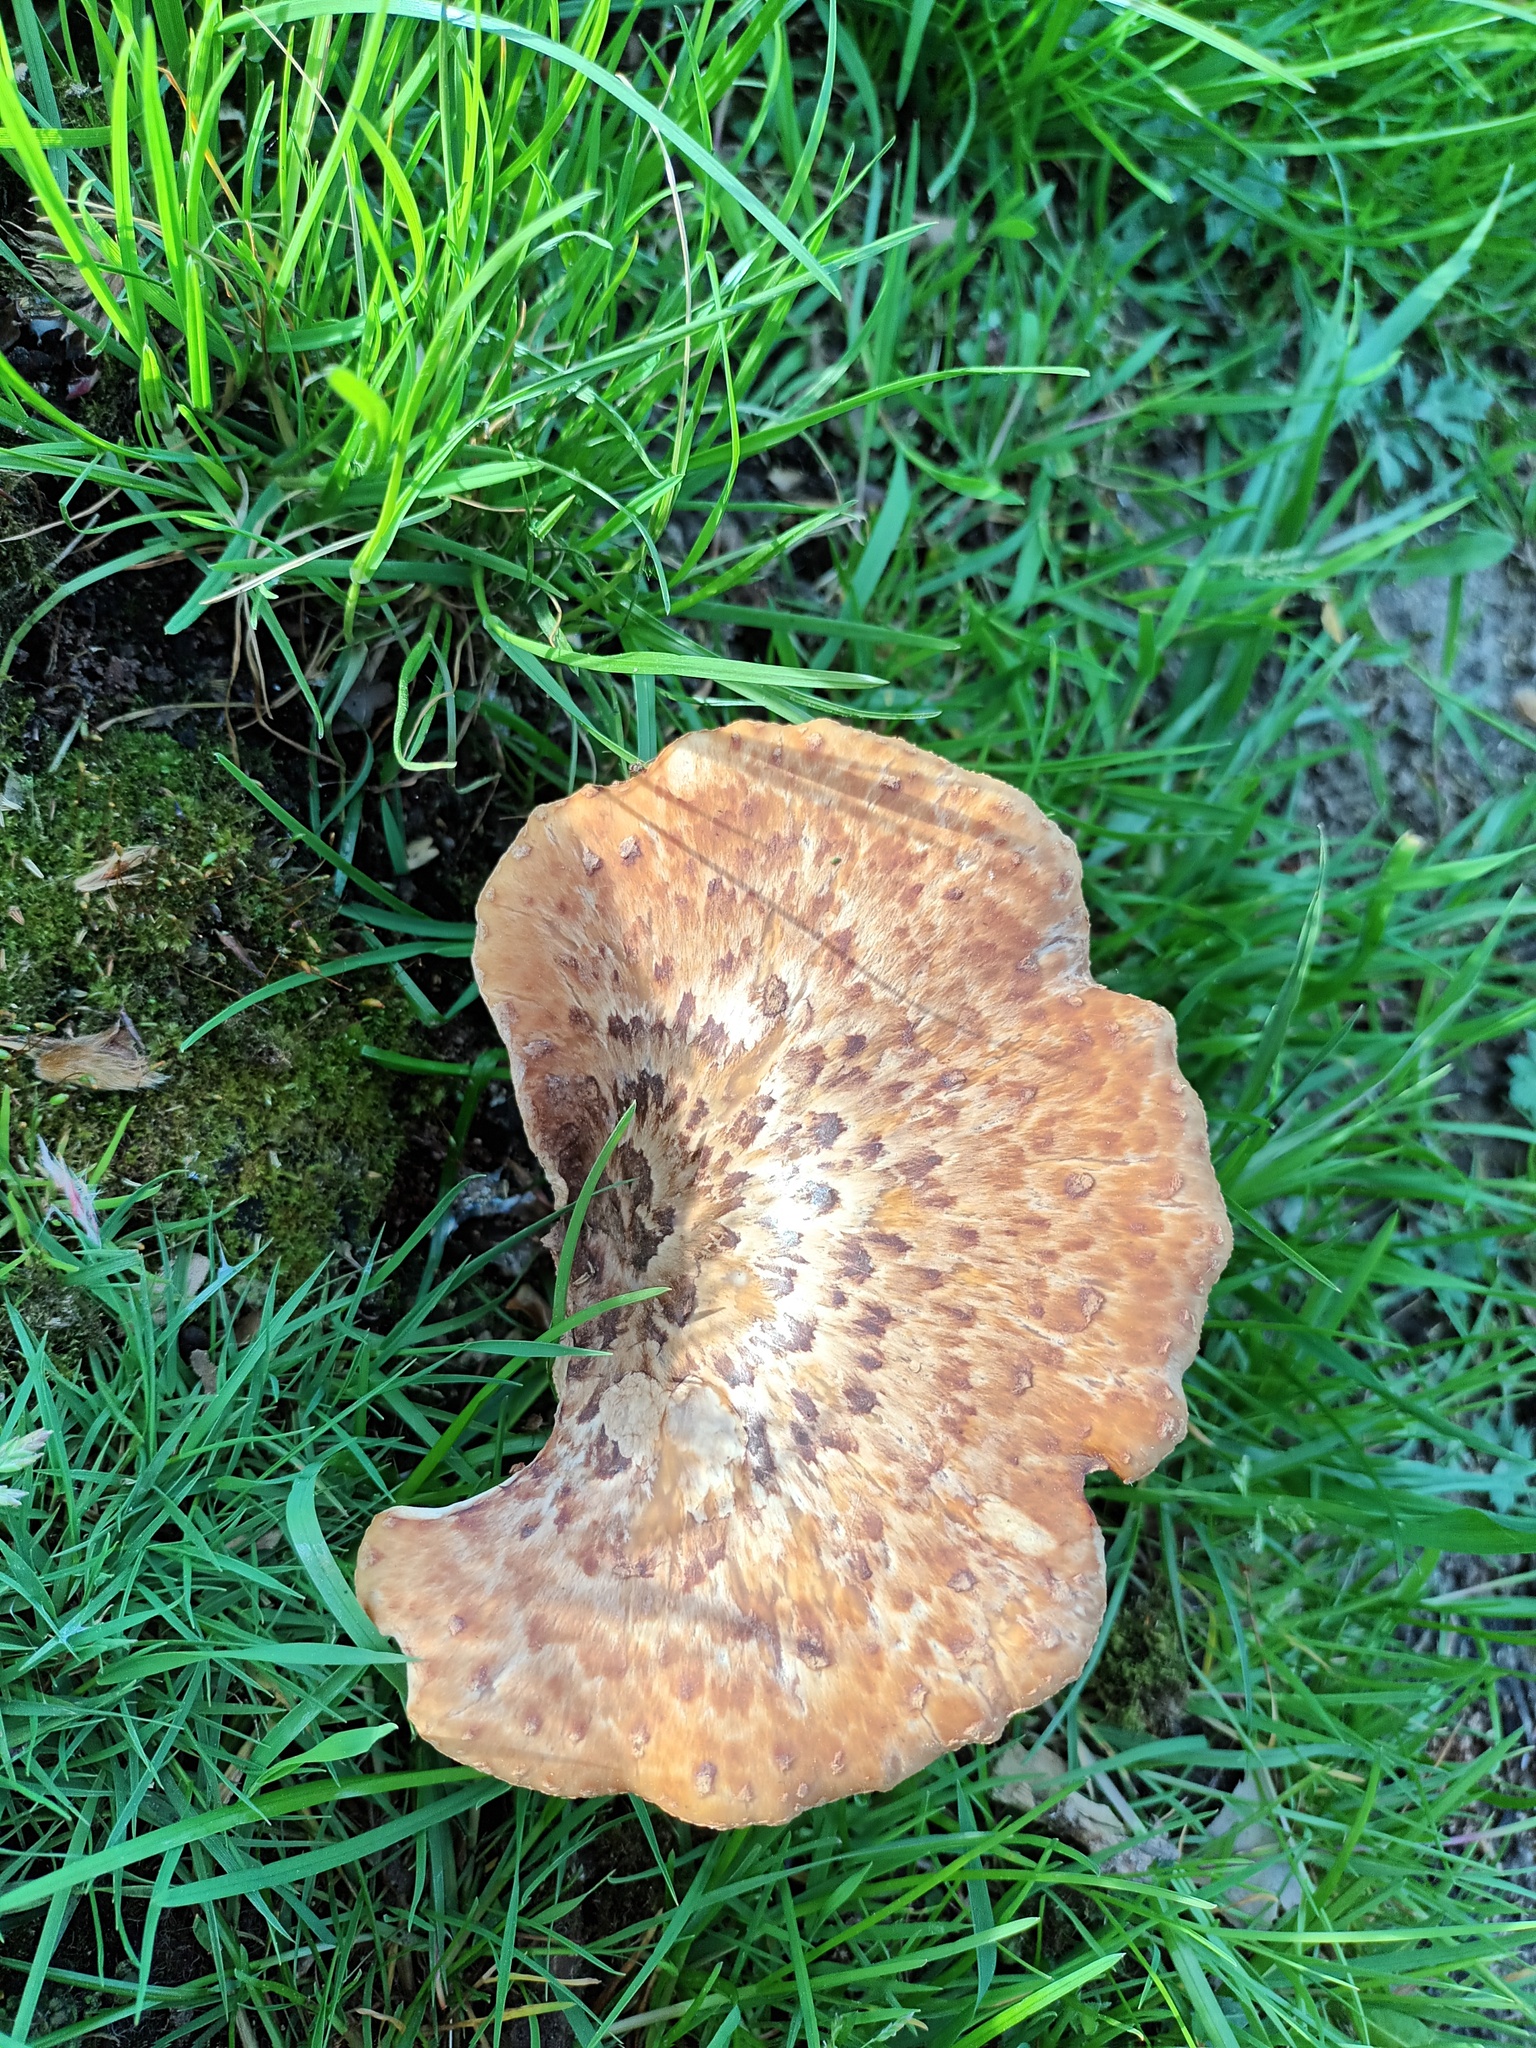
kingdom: Fungi
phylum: Basidiomycota
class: Agaricomycetes
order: Polyporales
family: Polyporaceae
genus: Cerioporus
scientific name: Cerioporus squamosus
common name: Dryad's saddle
